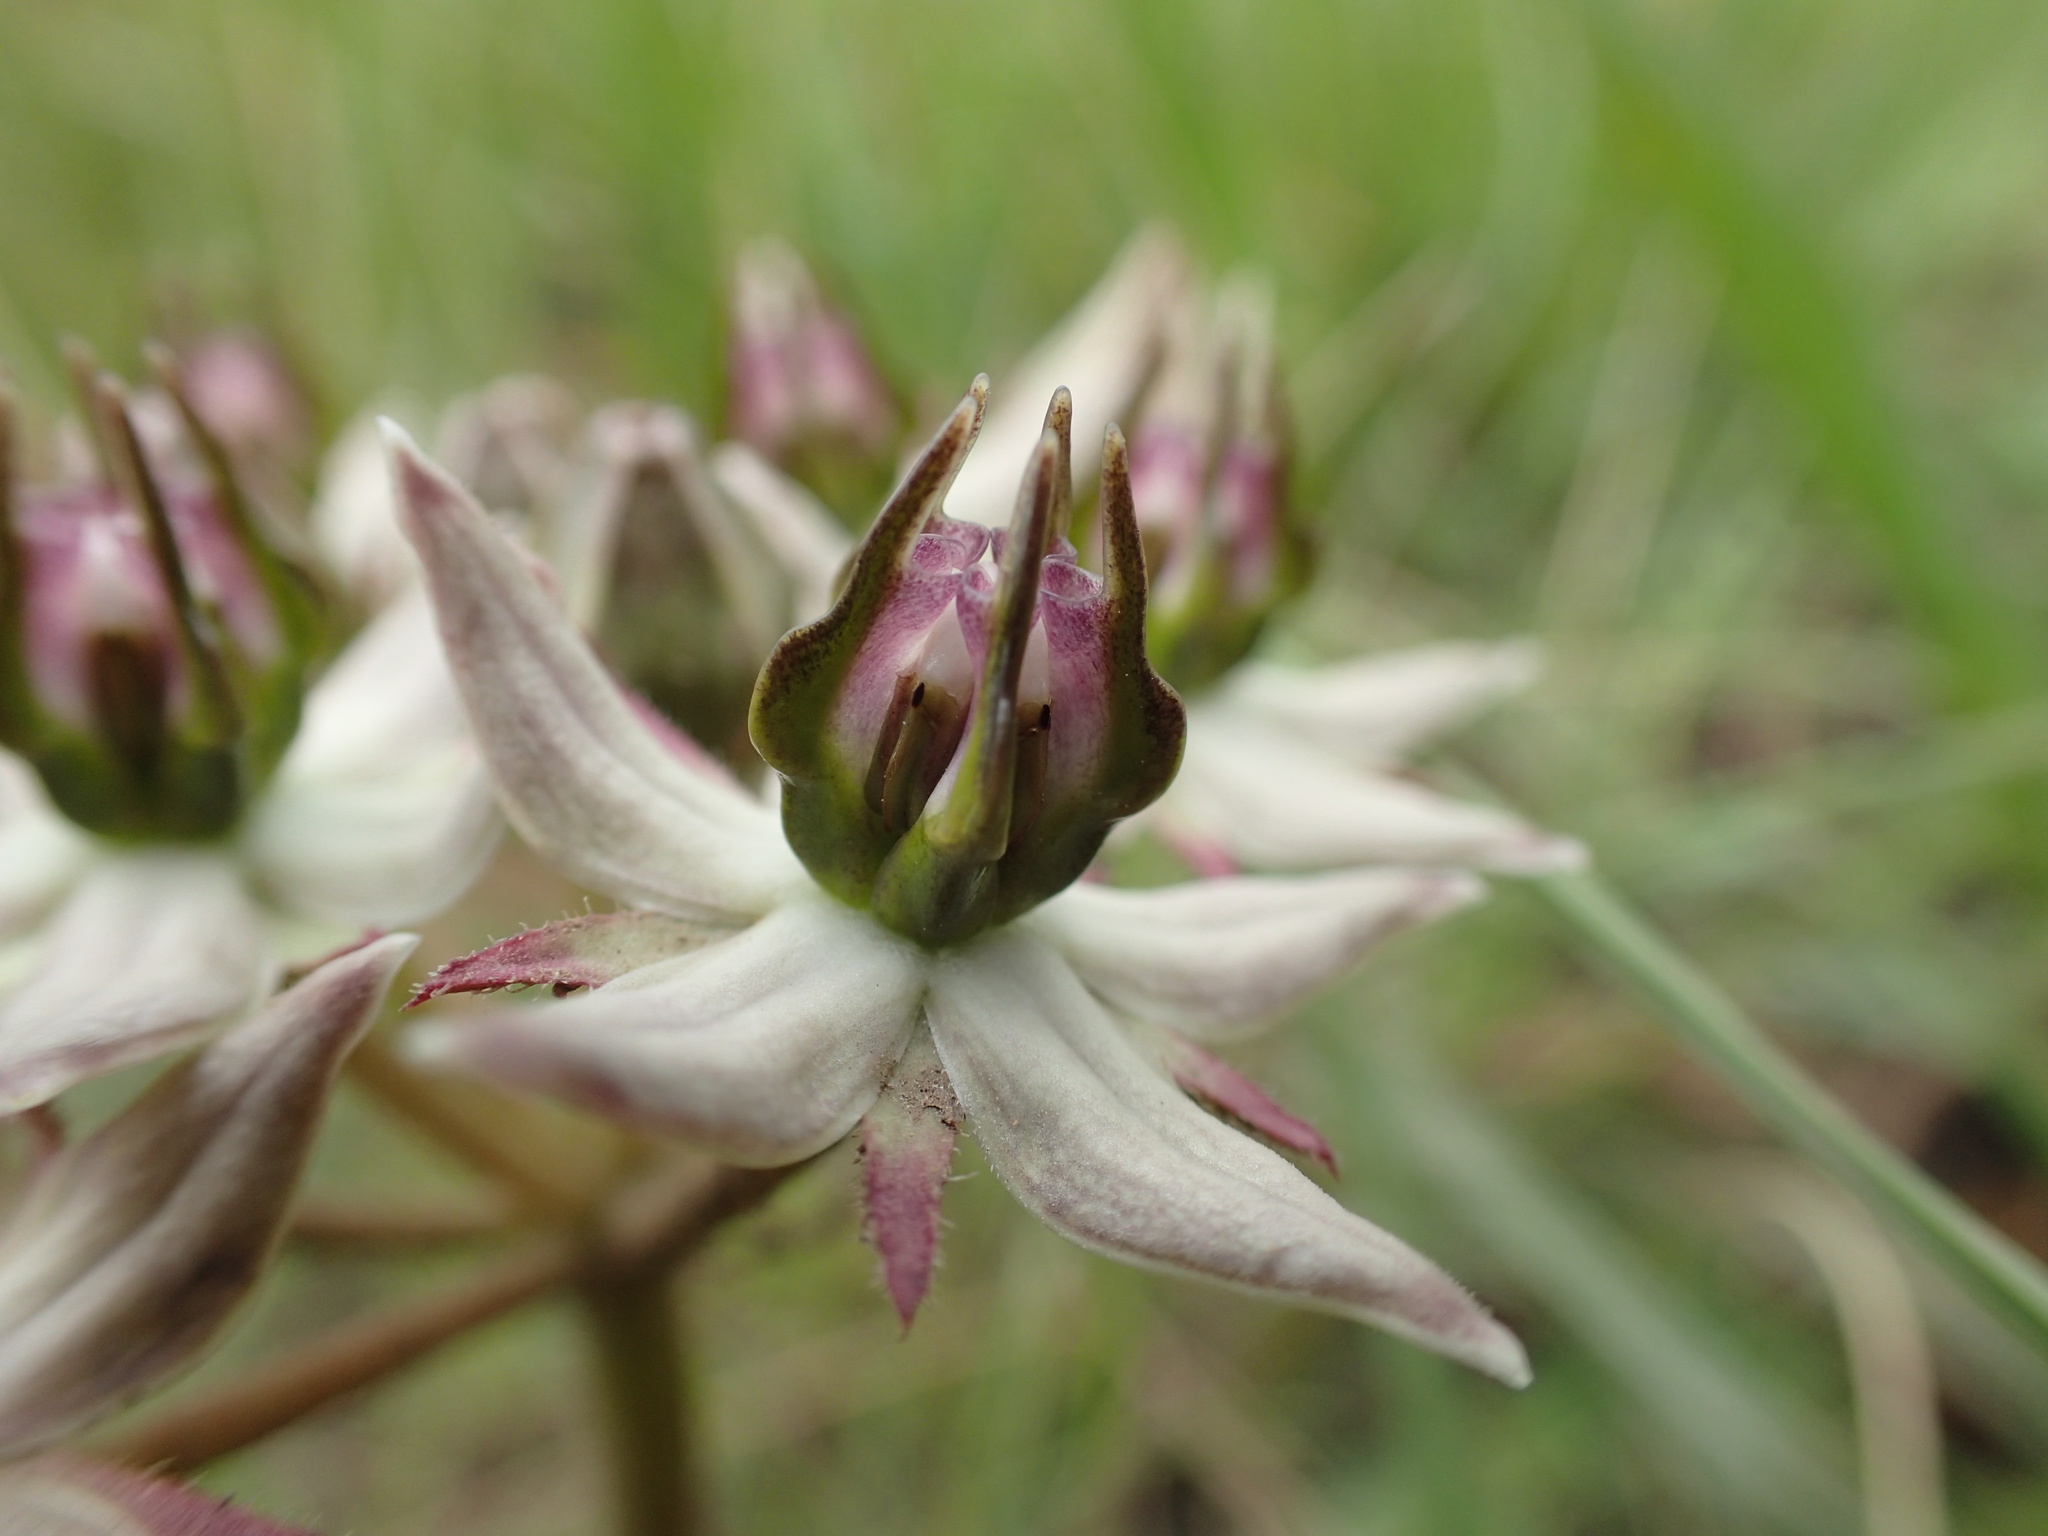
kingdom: Plantae
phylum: Tracheophyta
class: Magnoliopsida
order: Gentianales
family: Apocynaceae
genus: Asclepias
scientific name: Asclepias gibba
